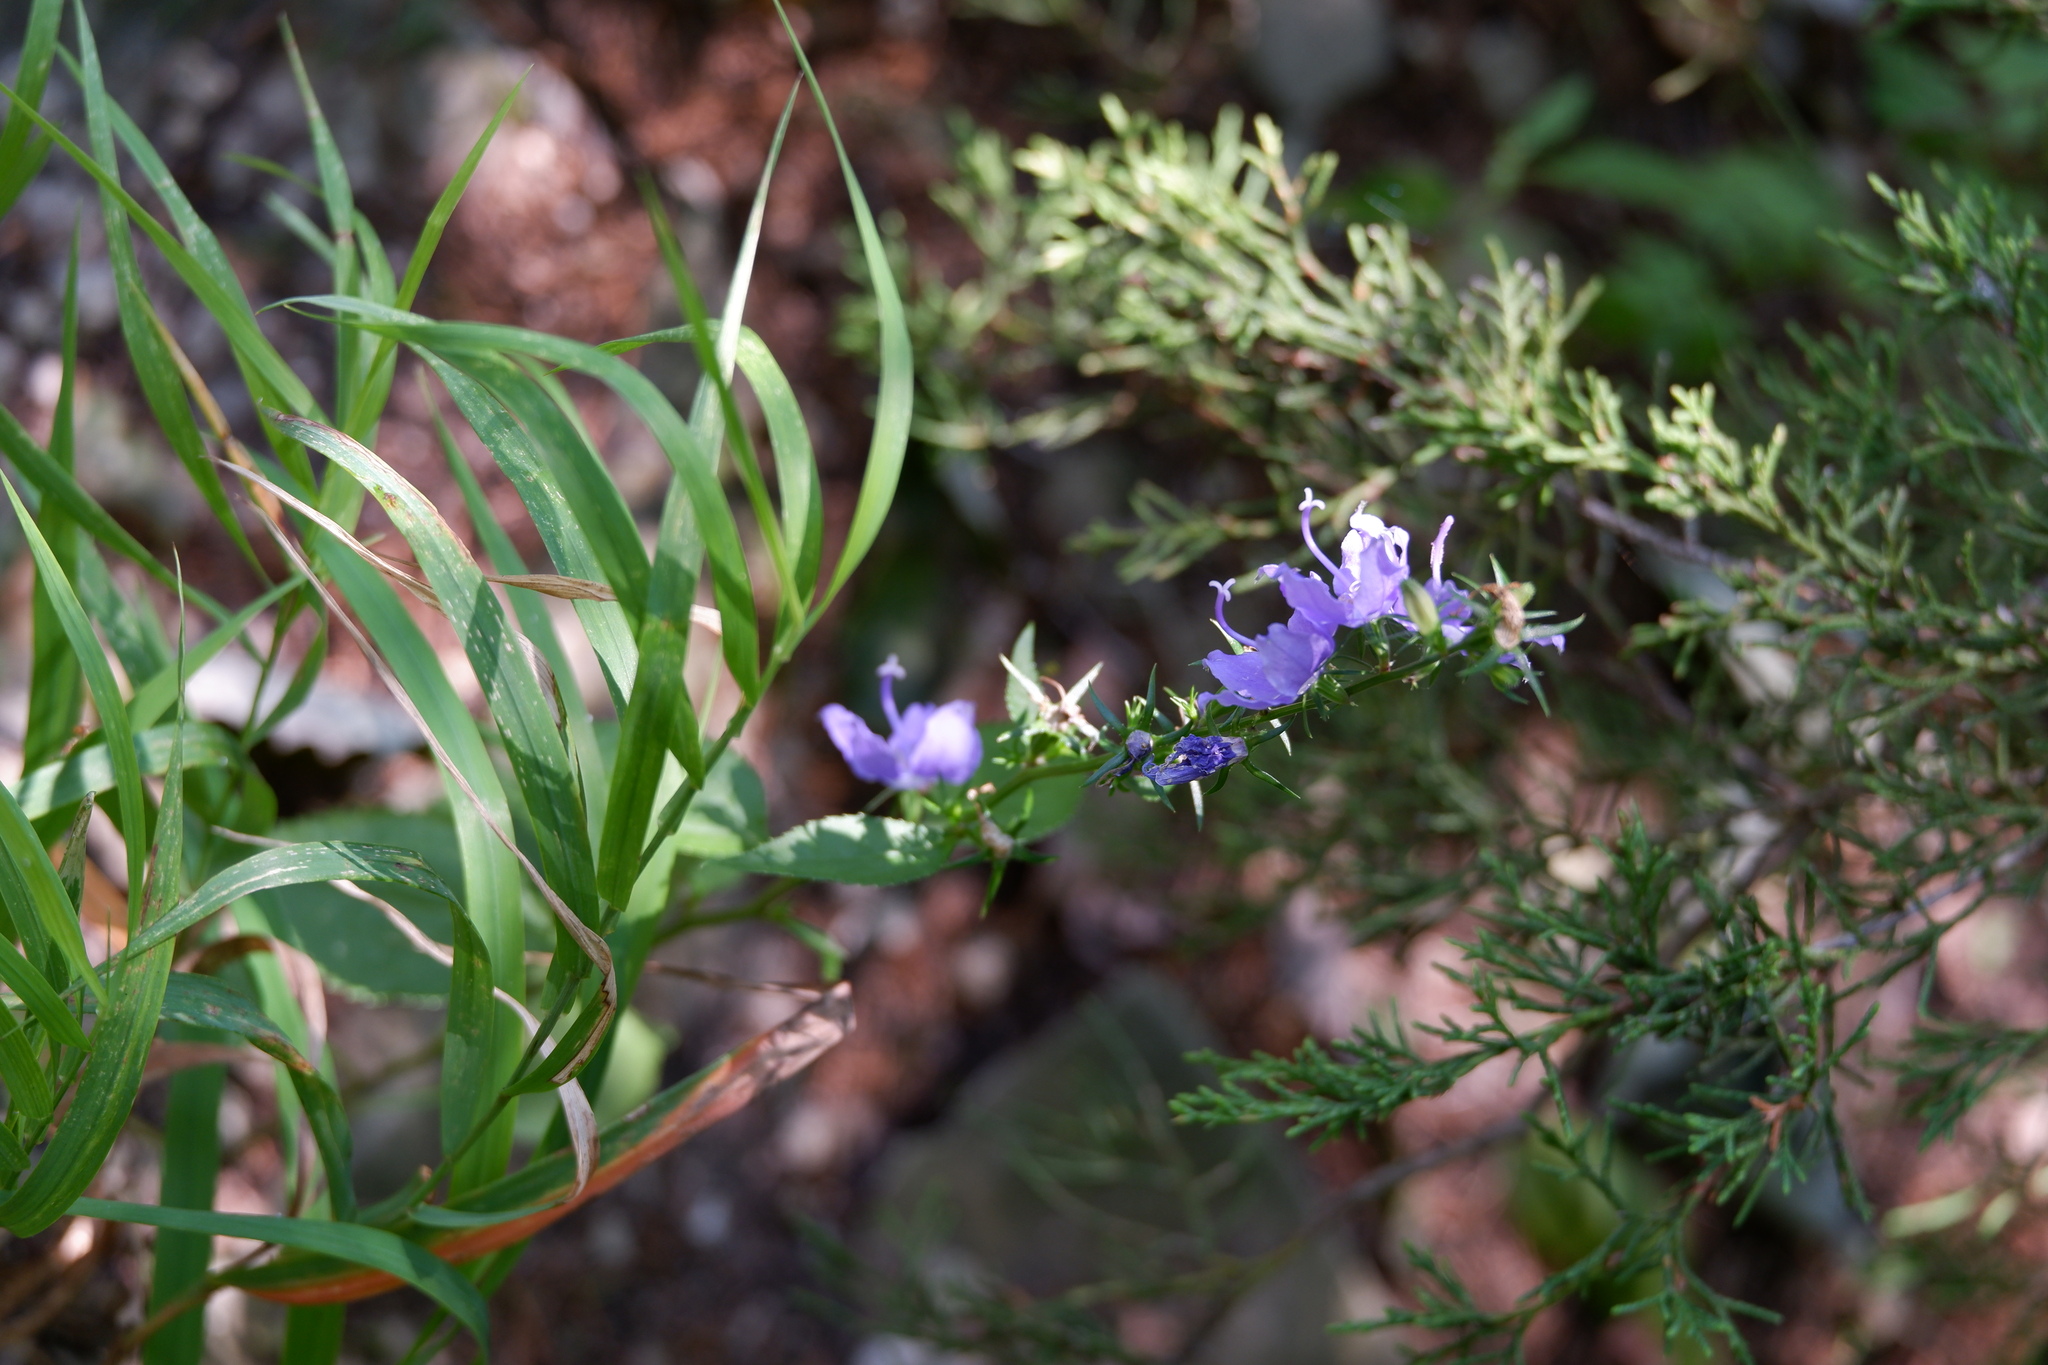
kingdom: Plantae
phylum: Tracheophyta
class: Magnoliopsida
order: Asterales
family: Campanulaceae
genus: Campanulastrum
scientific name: Campanulastrum americanum
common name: American bellflower
